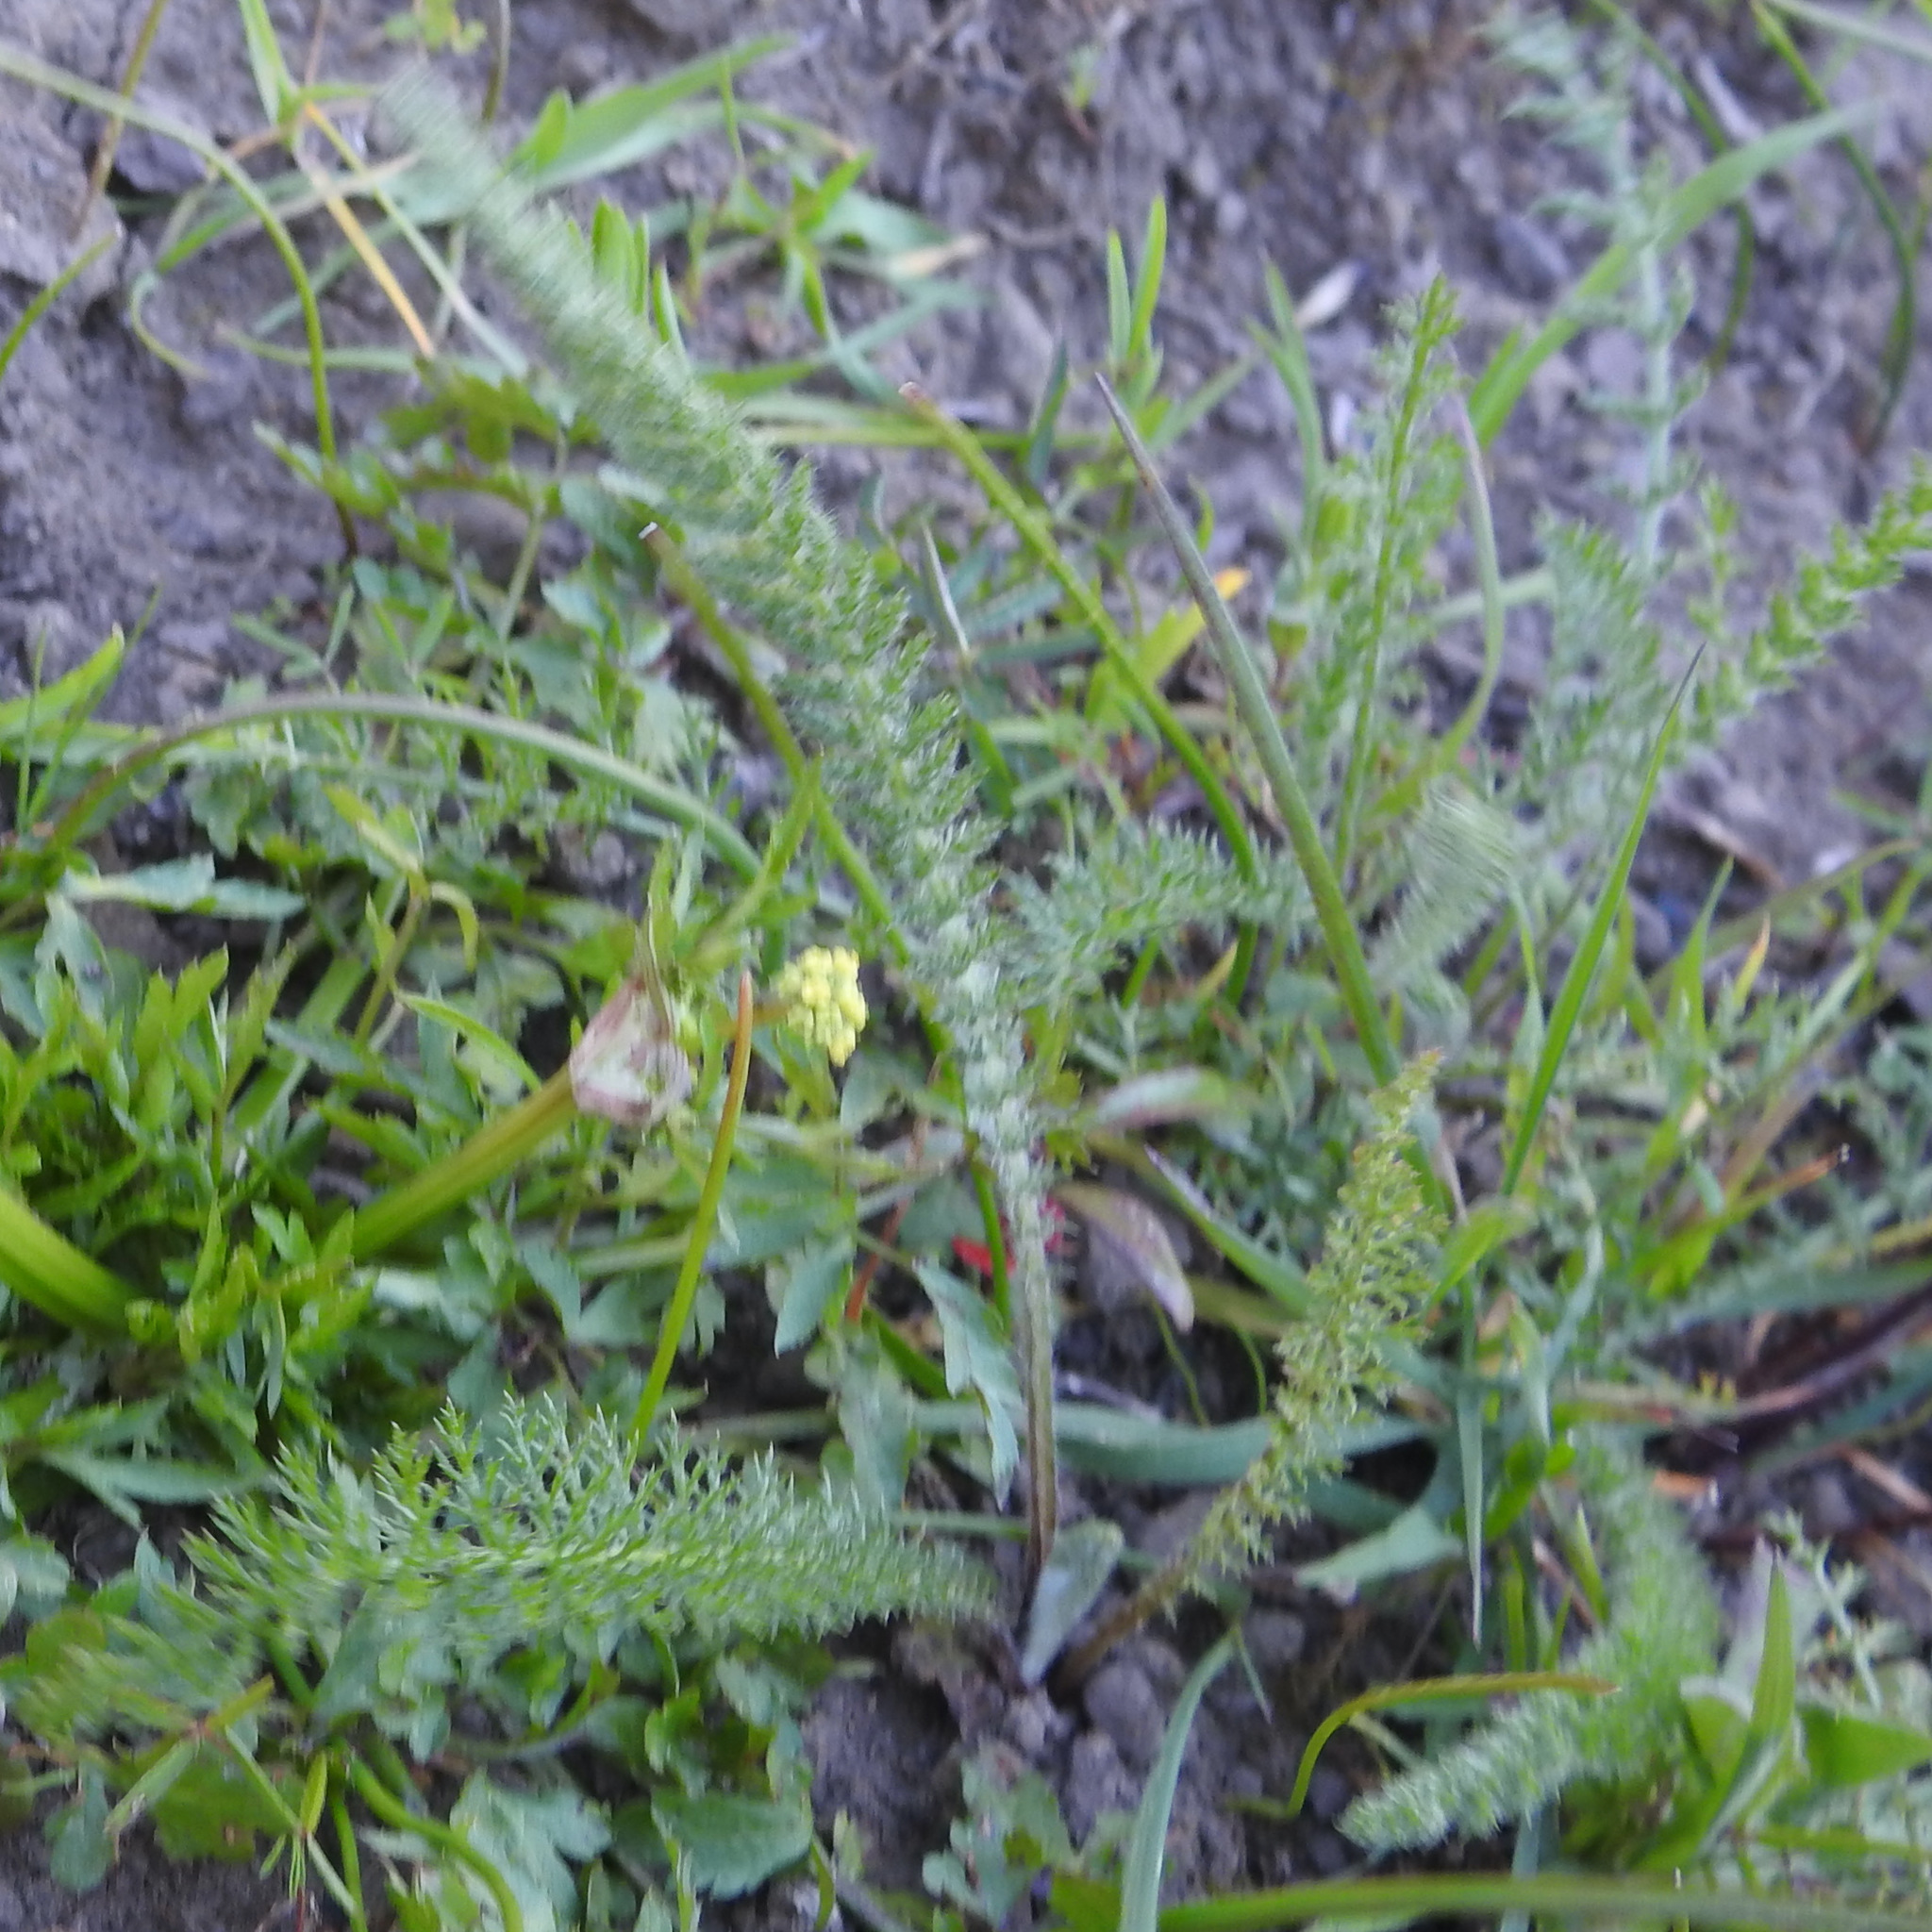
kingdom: Plantae
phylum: Tracheophyta
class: Magnoliopsida
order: Asterales
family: Asteraceae
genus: Achillea
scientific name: Achillea millefolium
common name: Yarrow
